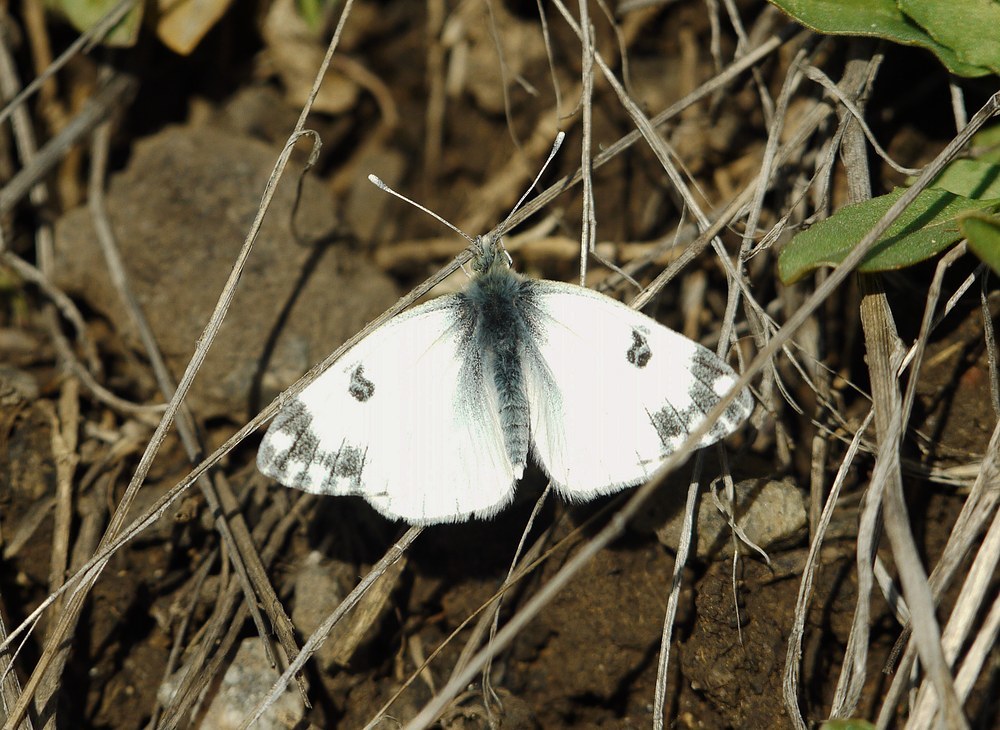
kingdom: Animalia
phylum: Arthropoda
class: Insecta
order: Lepidoptera
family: Pieridae
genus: Pontia
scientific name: Pontia edusa
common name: Eastern bath white
